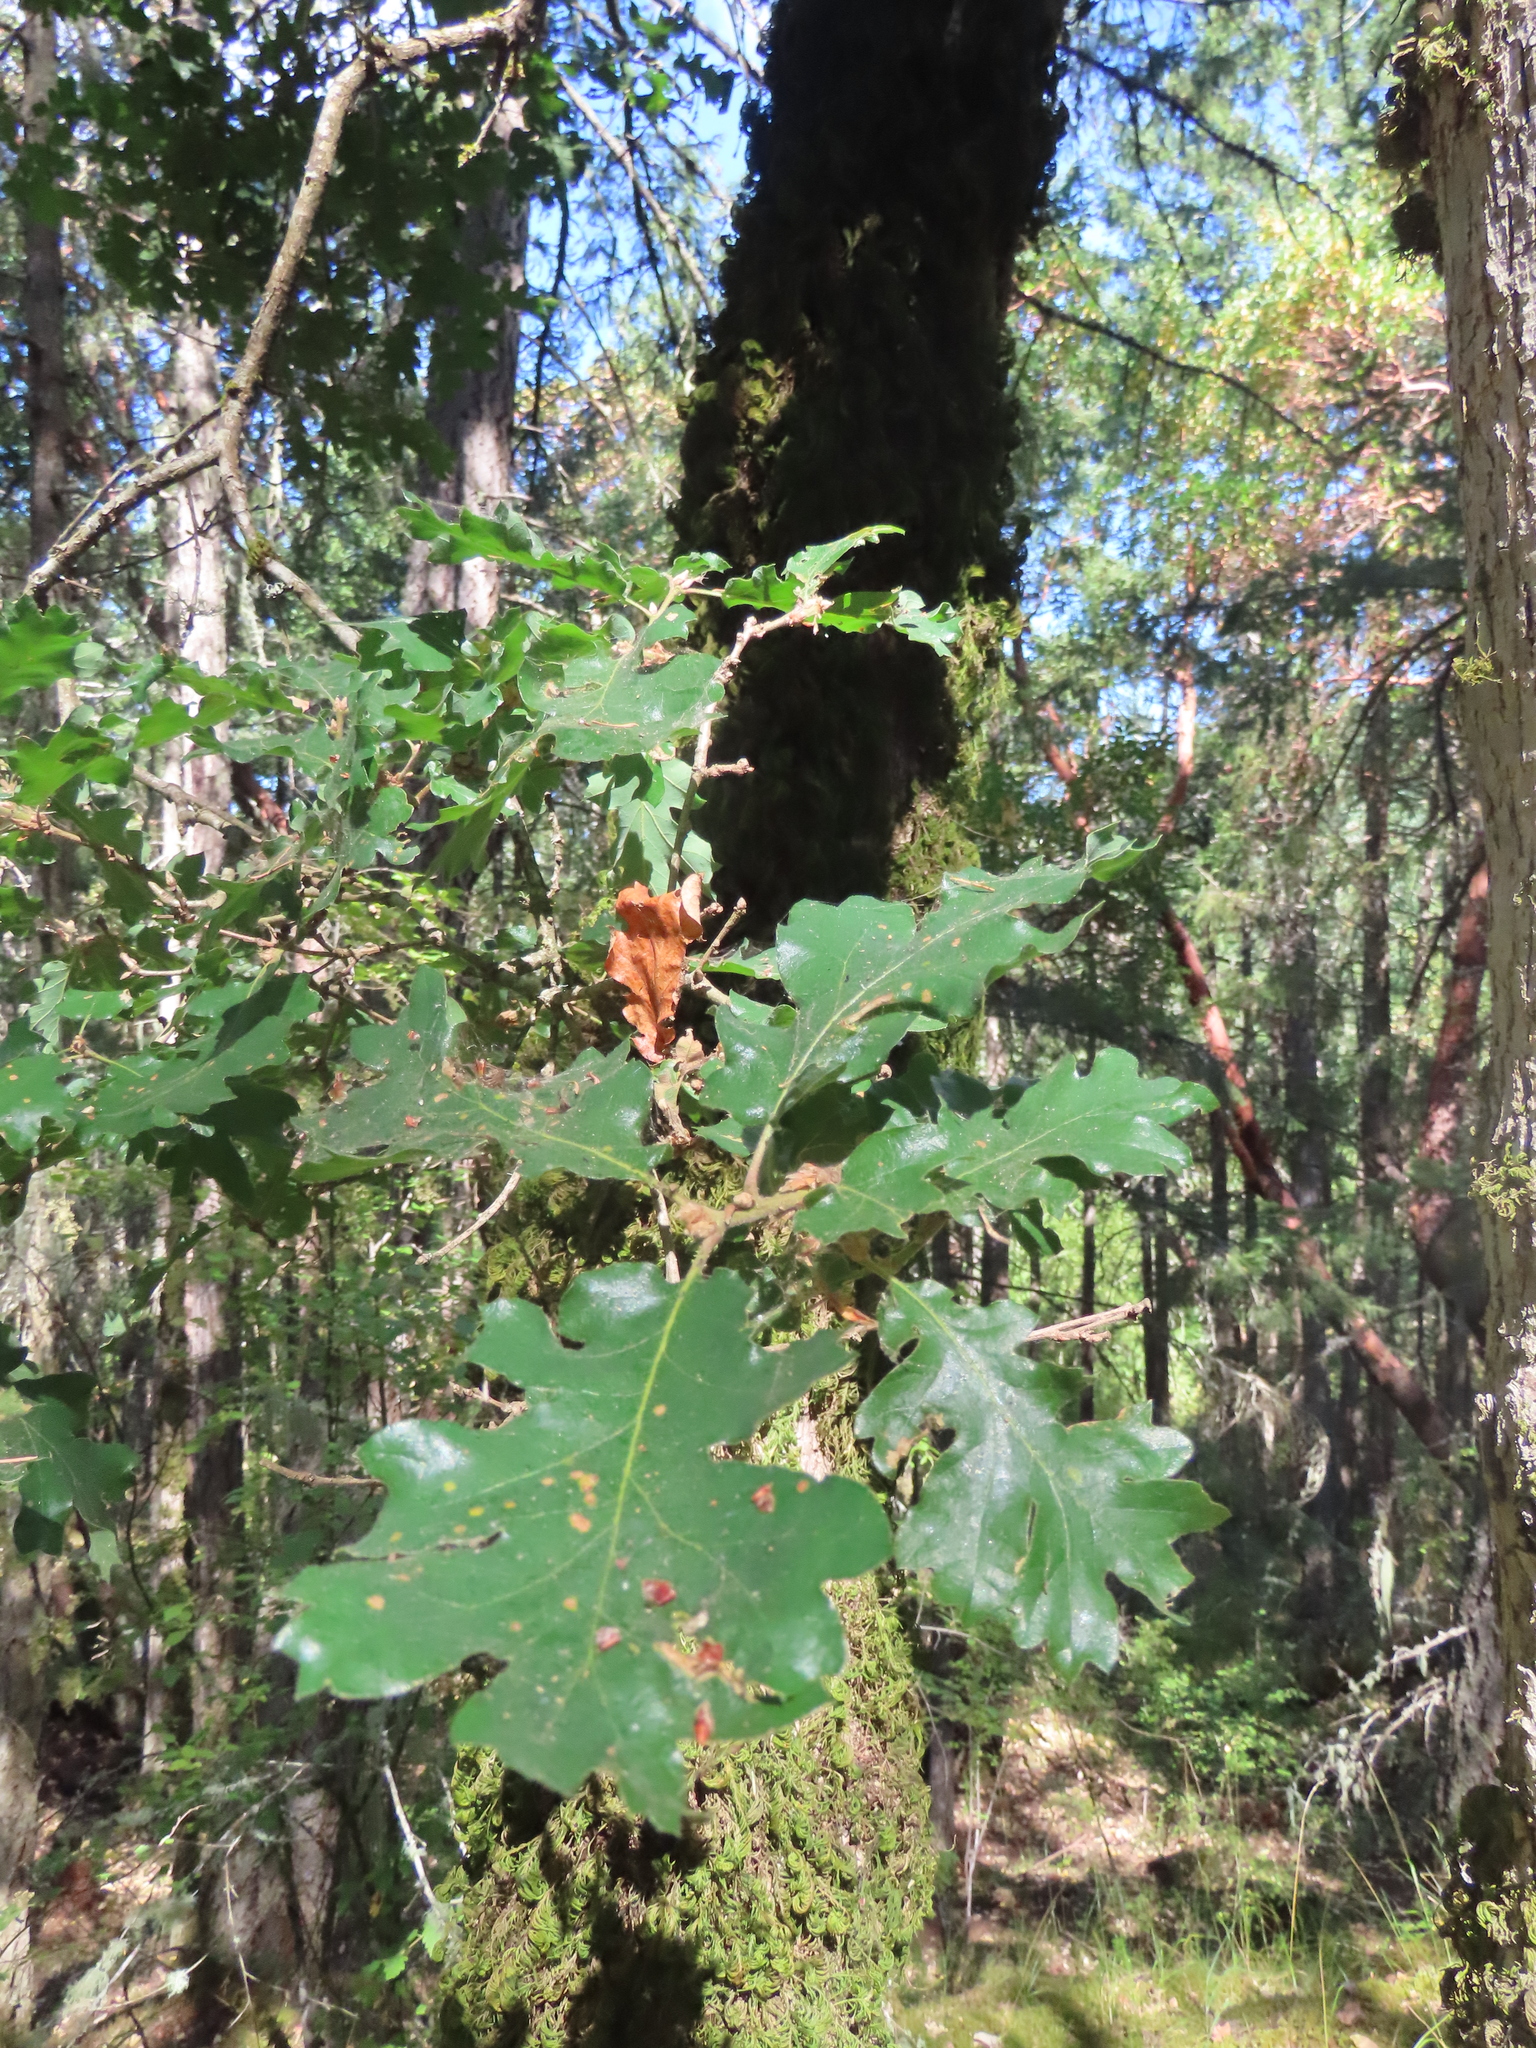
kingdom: Plantae
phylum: Tracheophyta
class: Magnoliopsida
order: Fagales
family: Fagaceae
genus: Quercus
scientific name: Quercus garryana
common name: Garry oak
